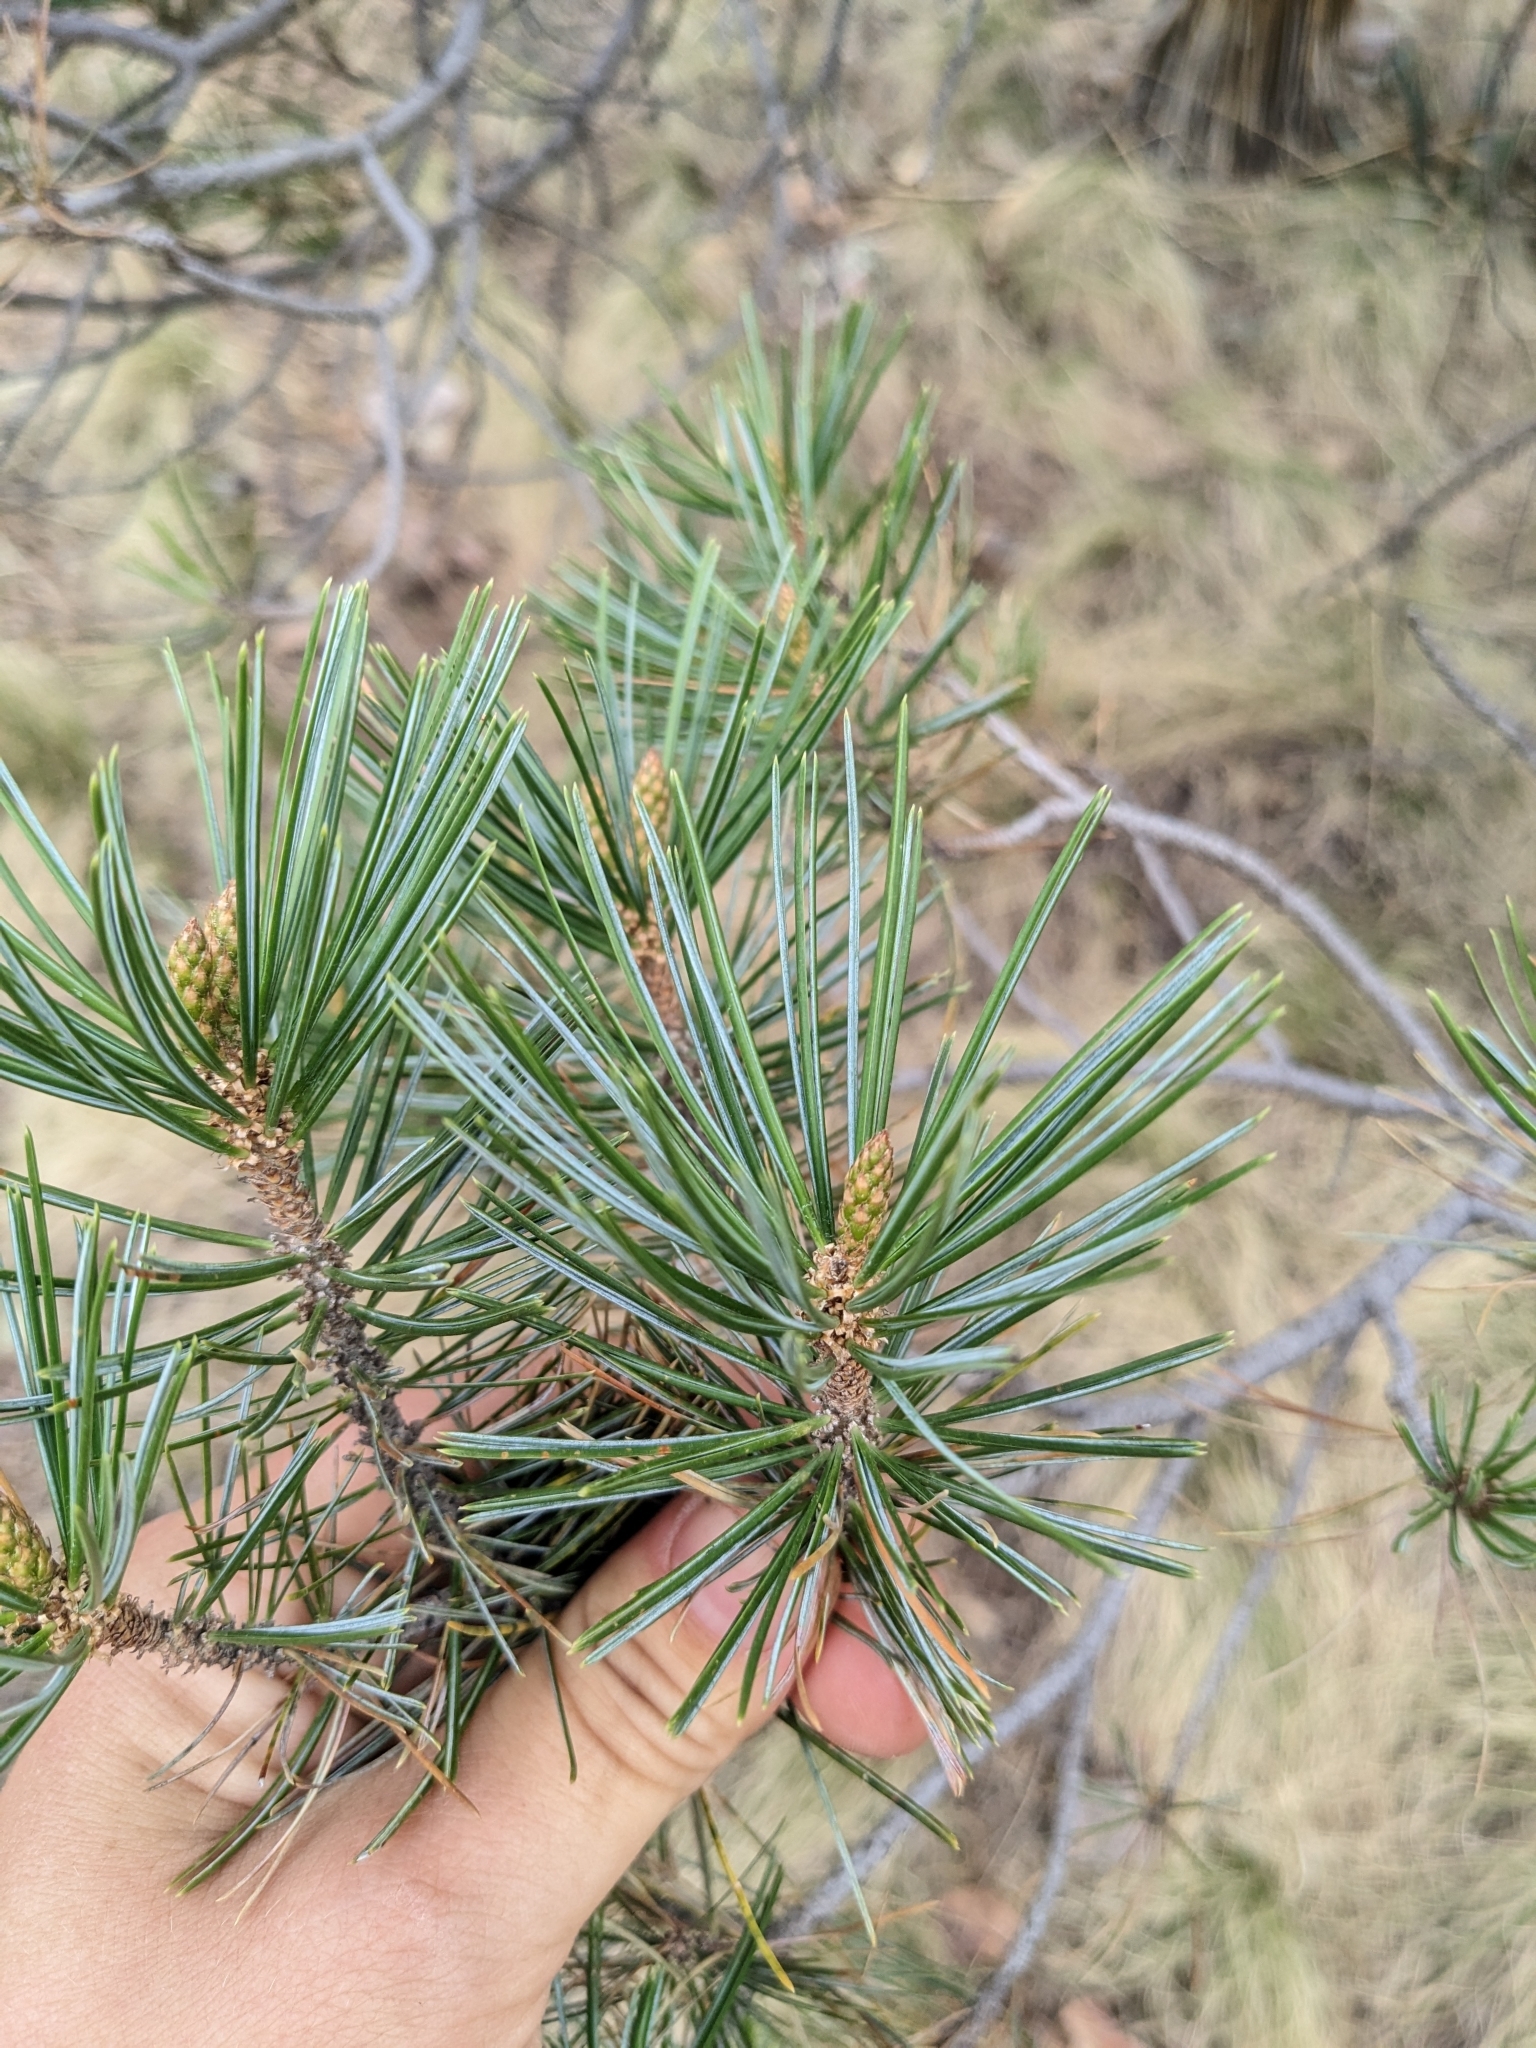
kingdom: Plantae
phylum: Tracheophyta
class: Pinopsida
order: Pinales
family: Pinaceae
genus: Pinus
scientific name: Pinus cembroides
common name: Mexican nut pine
